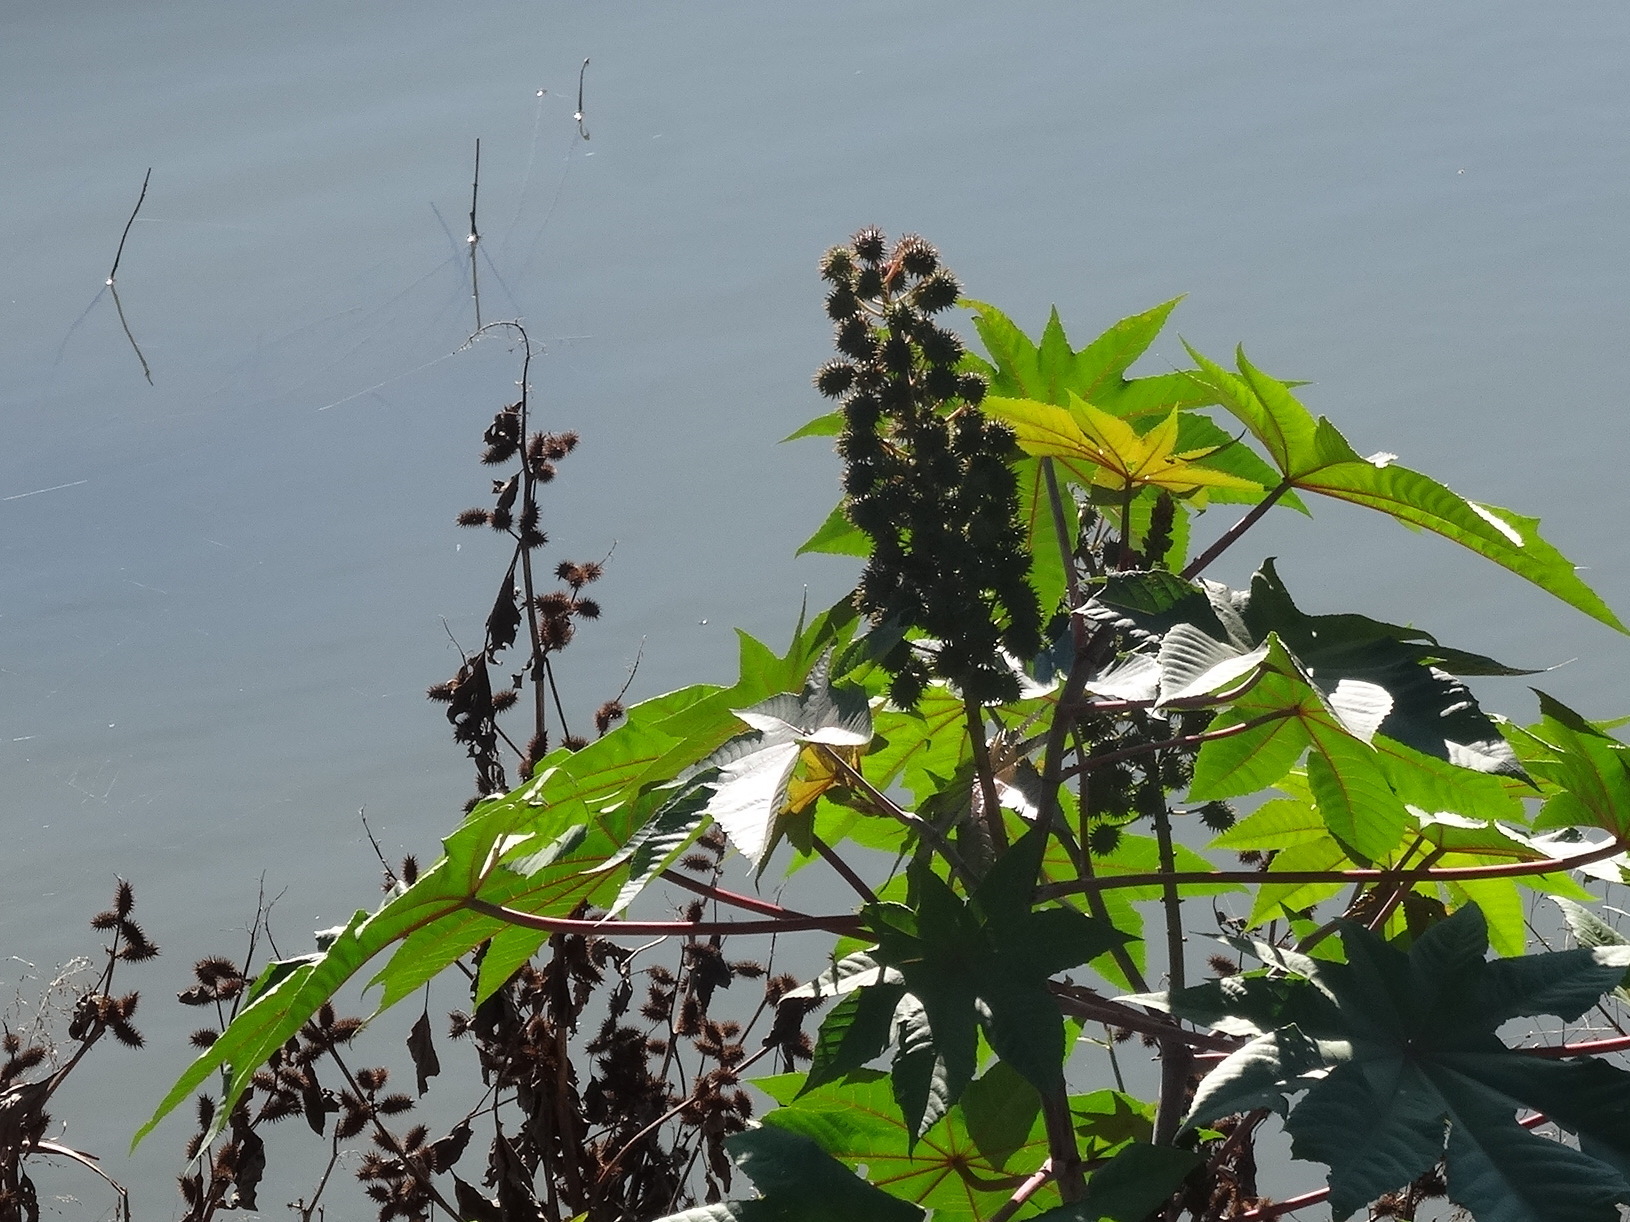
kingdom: Plantae
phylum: Tracheophyta
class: Magnoliopsida
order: Malpighiales
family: Euphorbiaceae
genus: Ricinus
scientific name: Ricinus communis
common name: Castor-oil-plant
